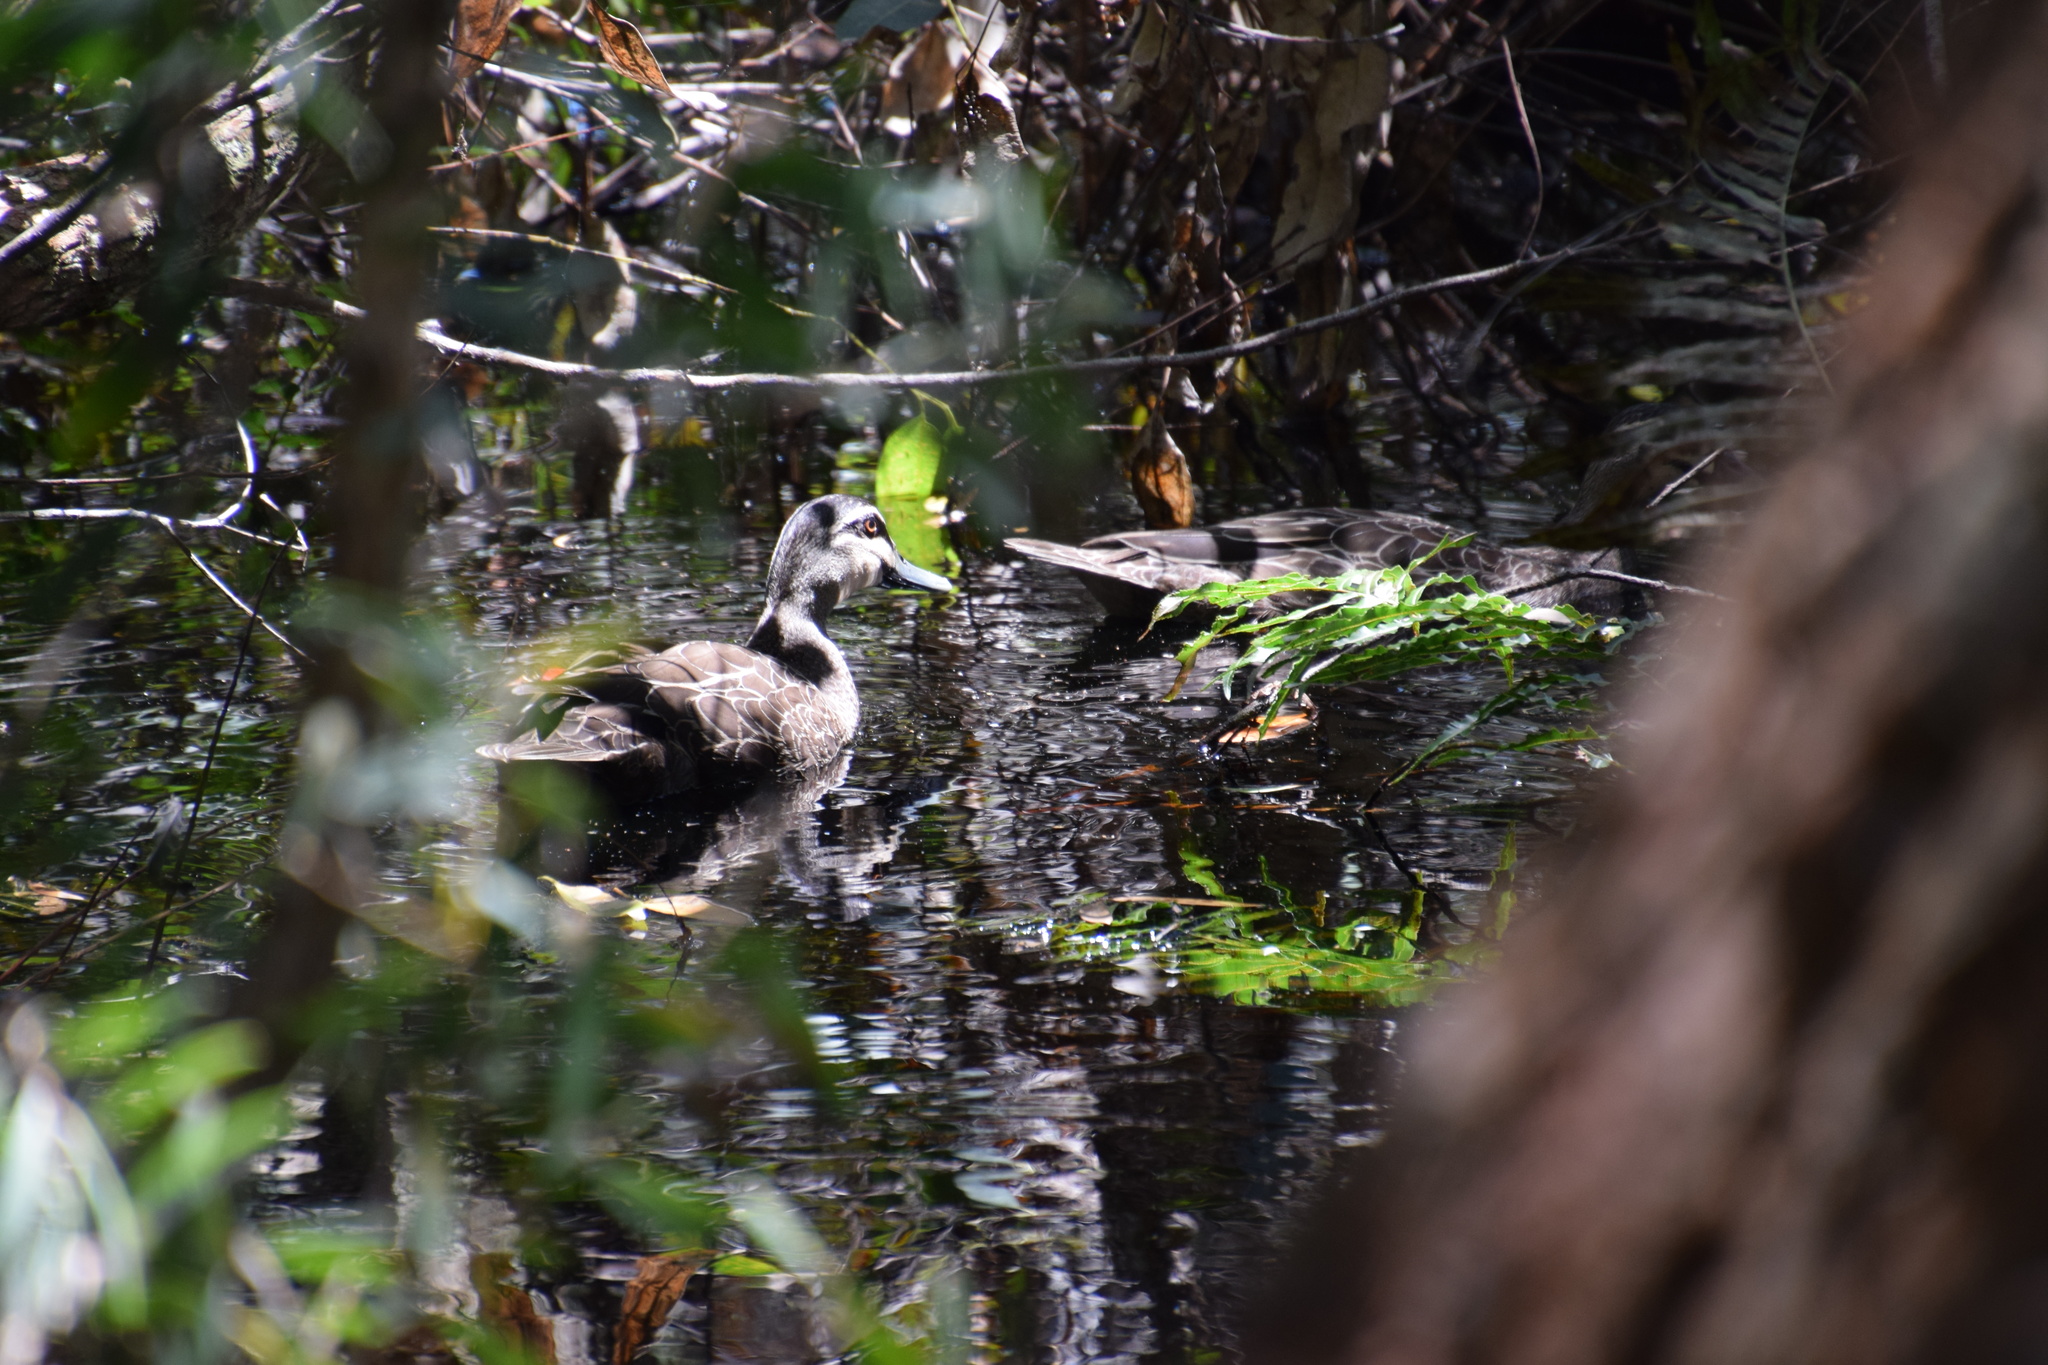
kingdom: Animalia
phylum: Chordata
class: Aves
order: Anseriformes
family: Anatidae
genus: Anas
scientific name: Anas superciliosa
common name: Pacific black duck
